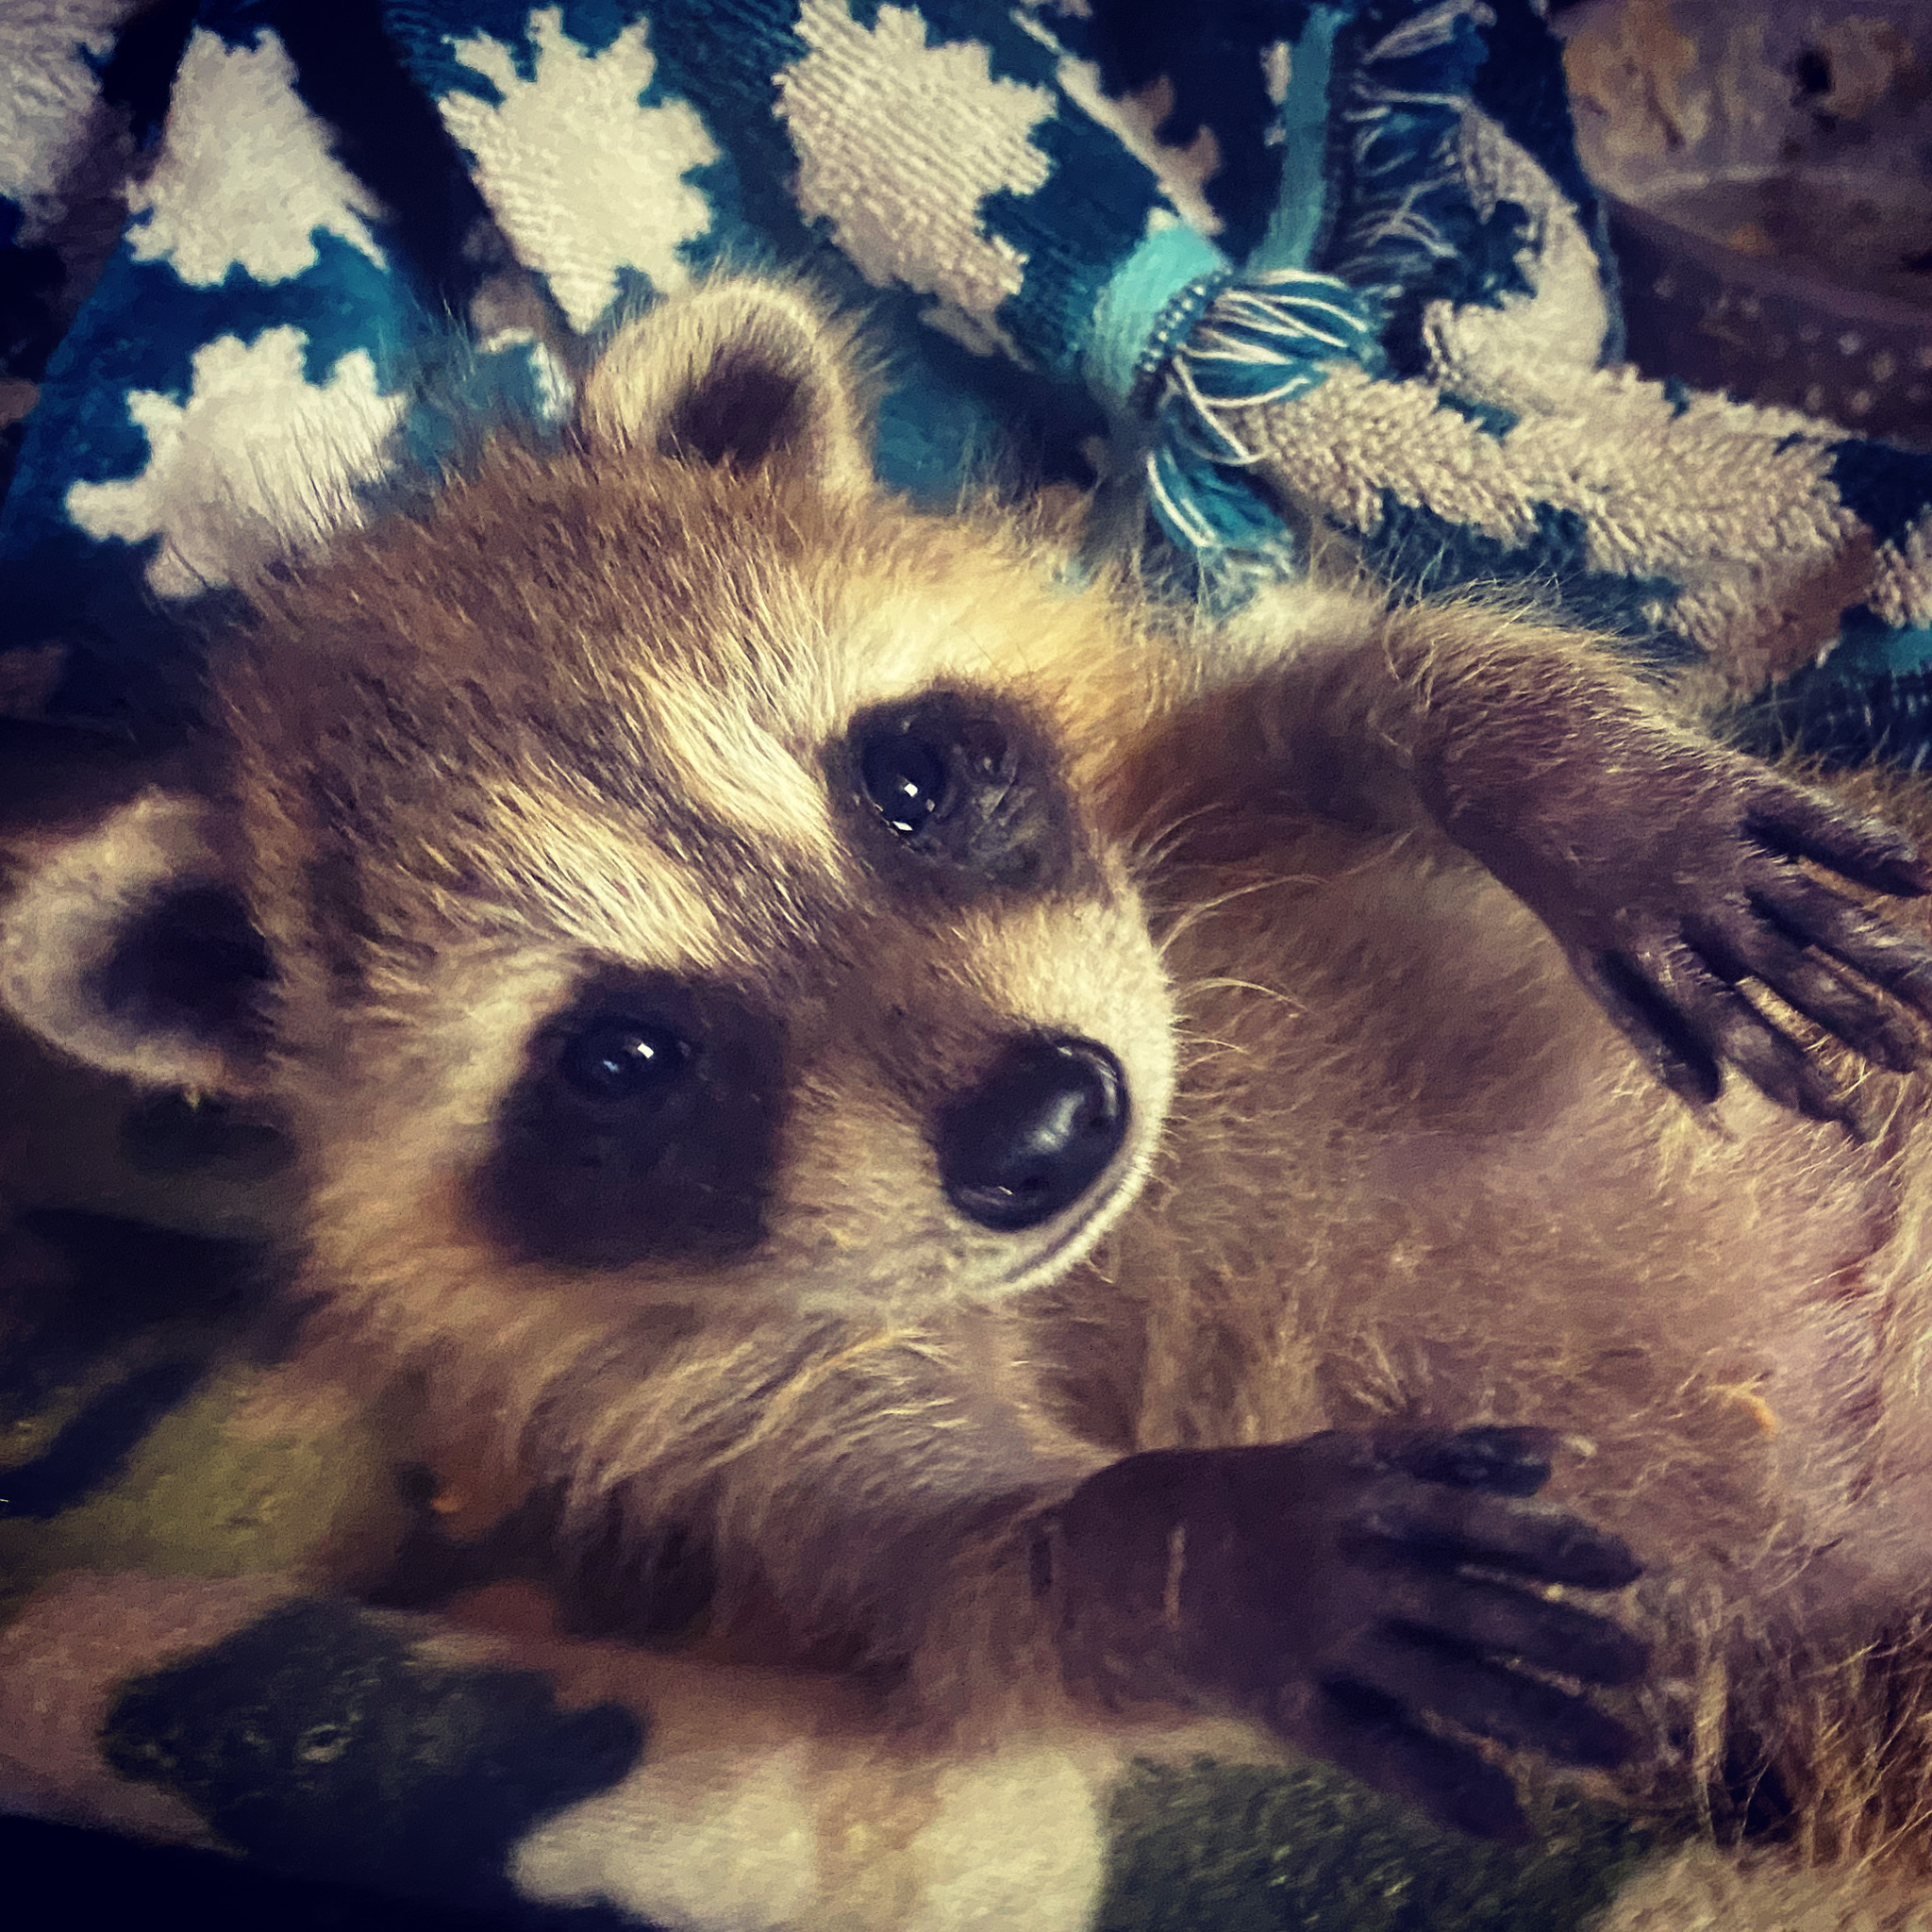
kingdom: Animalia
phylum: Chordata
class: Mammalia
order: Carnivora
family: Procyonidae
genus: Procyon
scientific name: Procyon lotor
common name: Raccoon
